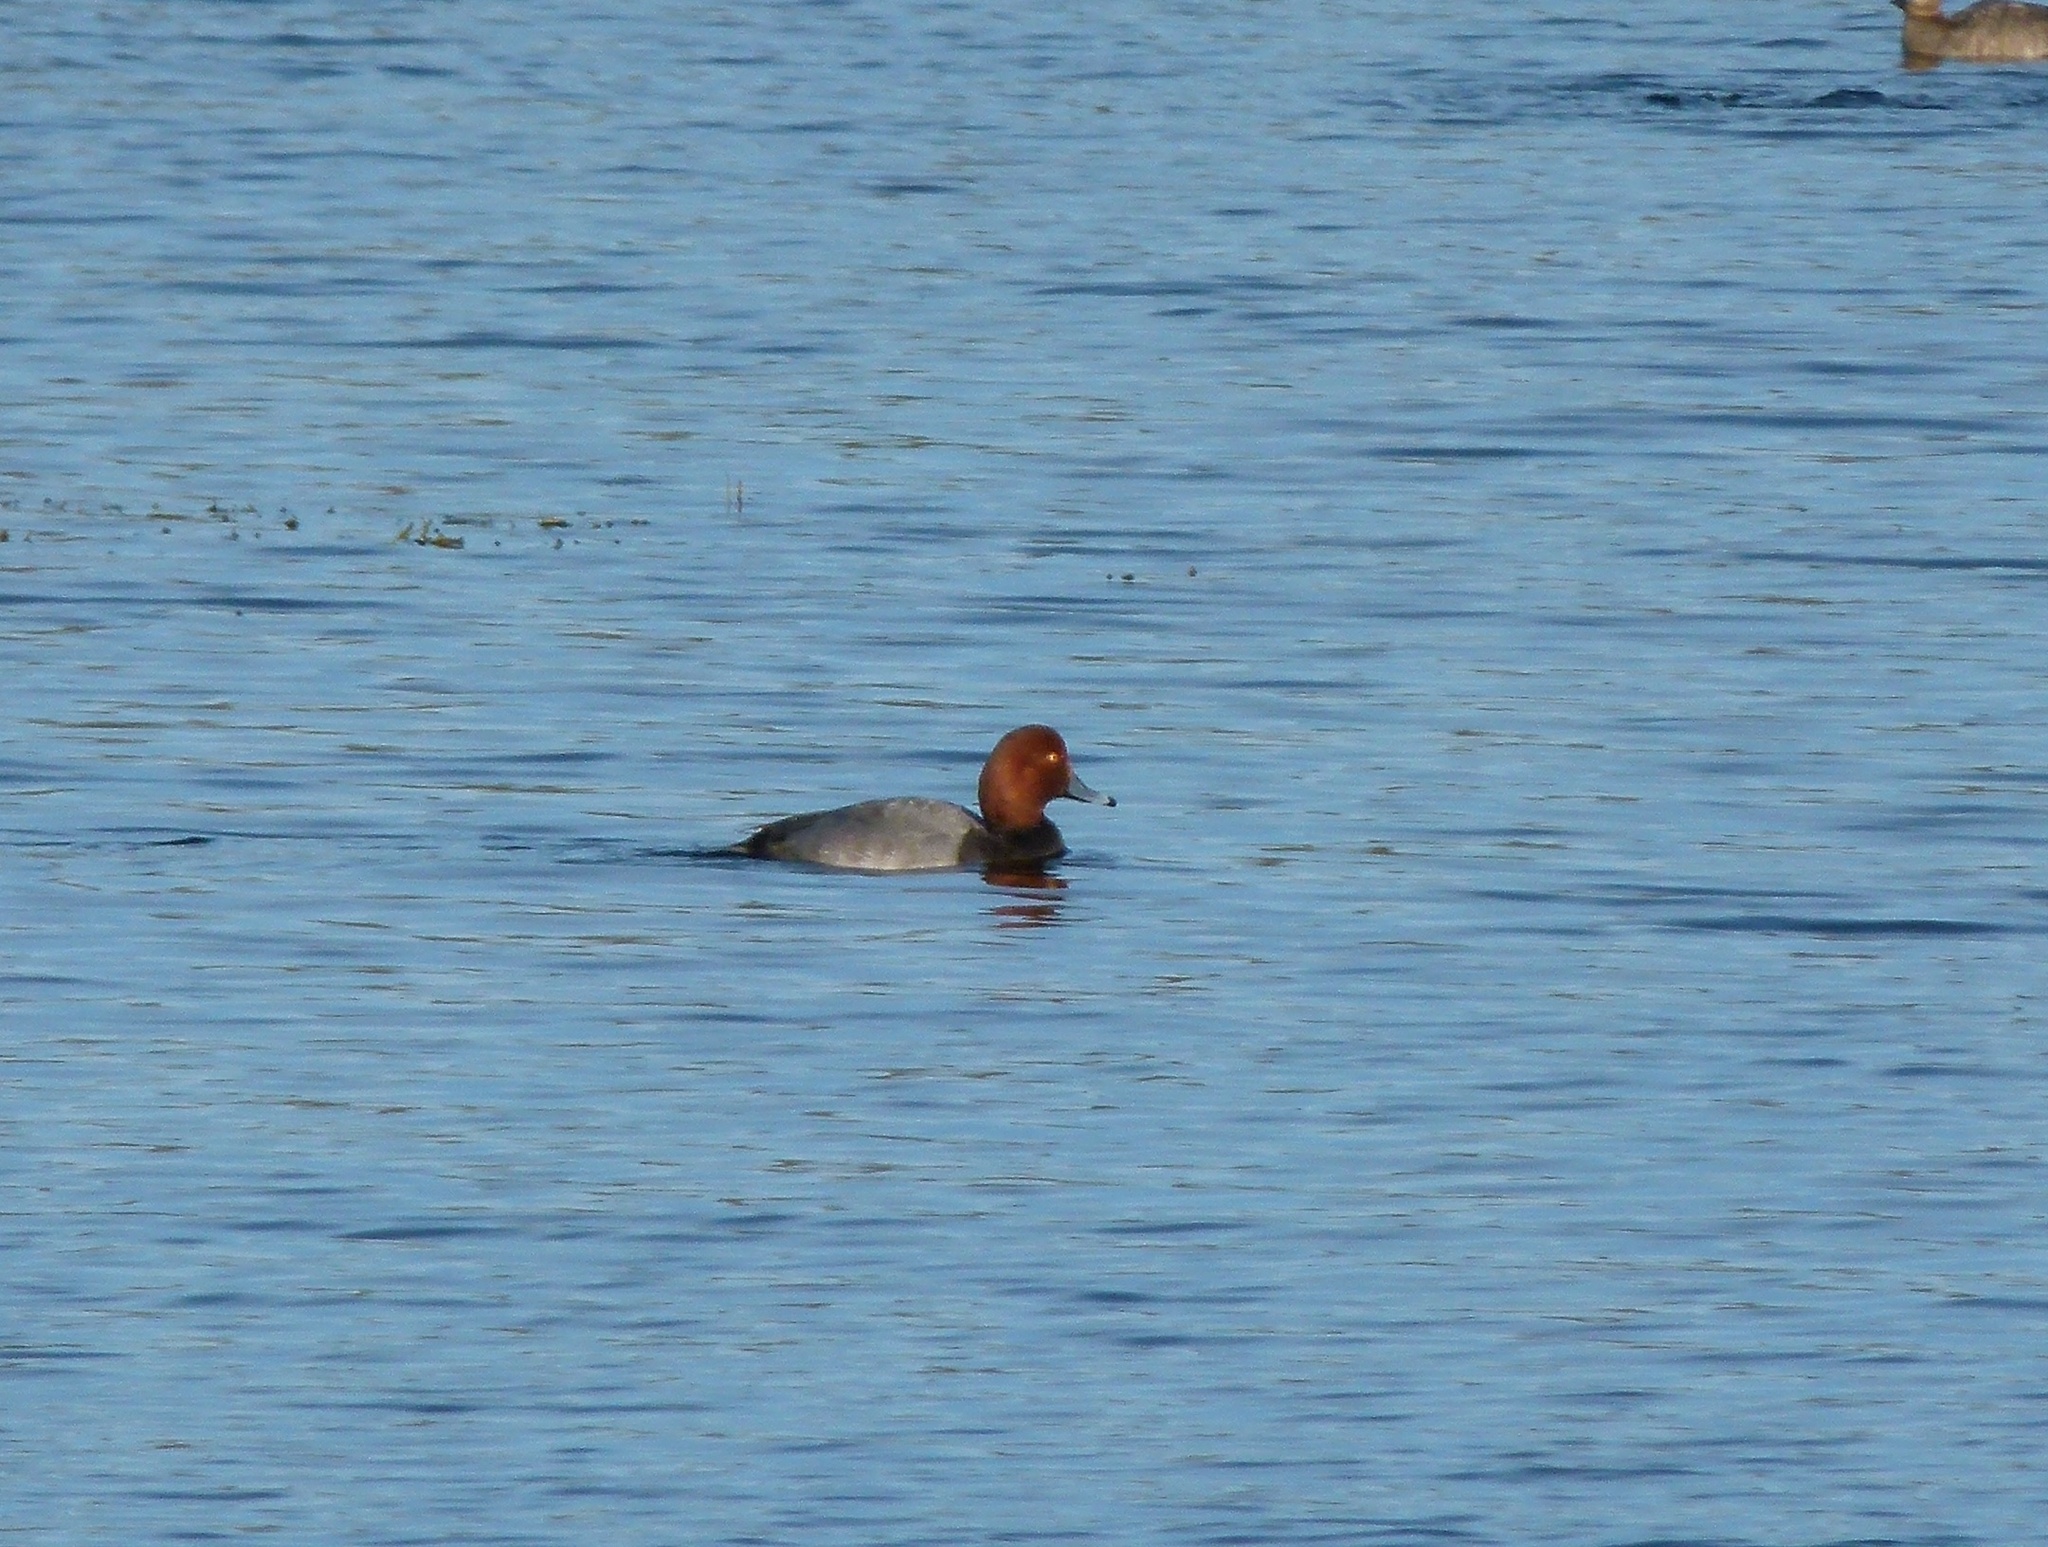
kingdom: Animalia
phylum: Chordata
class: Aves
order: Anseriformes
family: Anatidae
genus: Aythya
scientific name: Aythya americana
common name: Redhead
